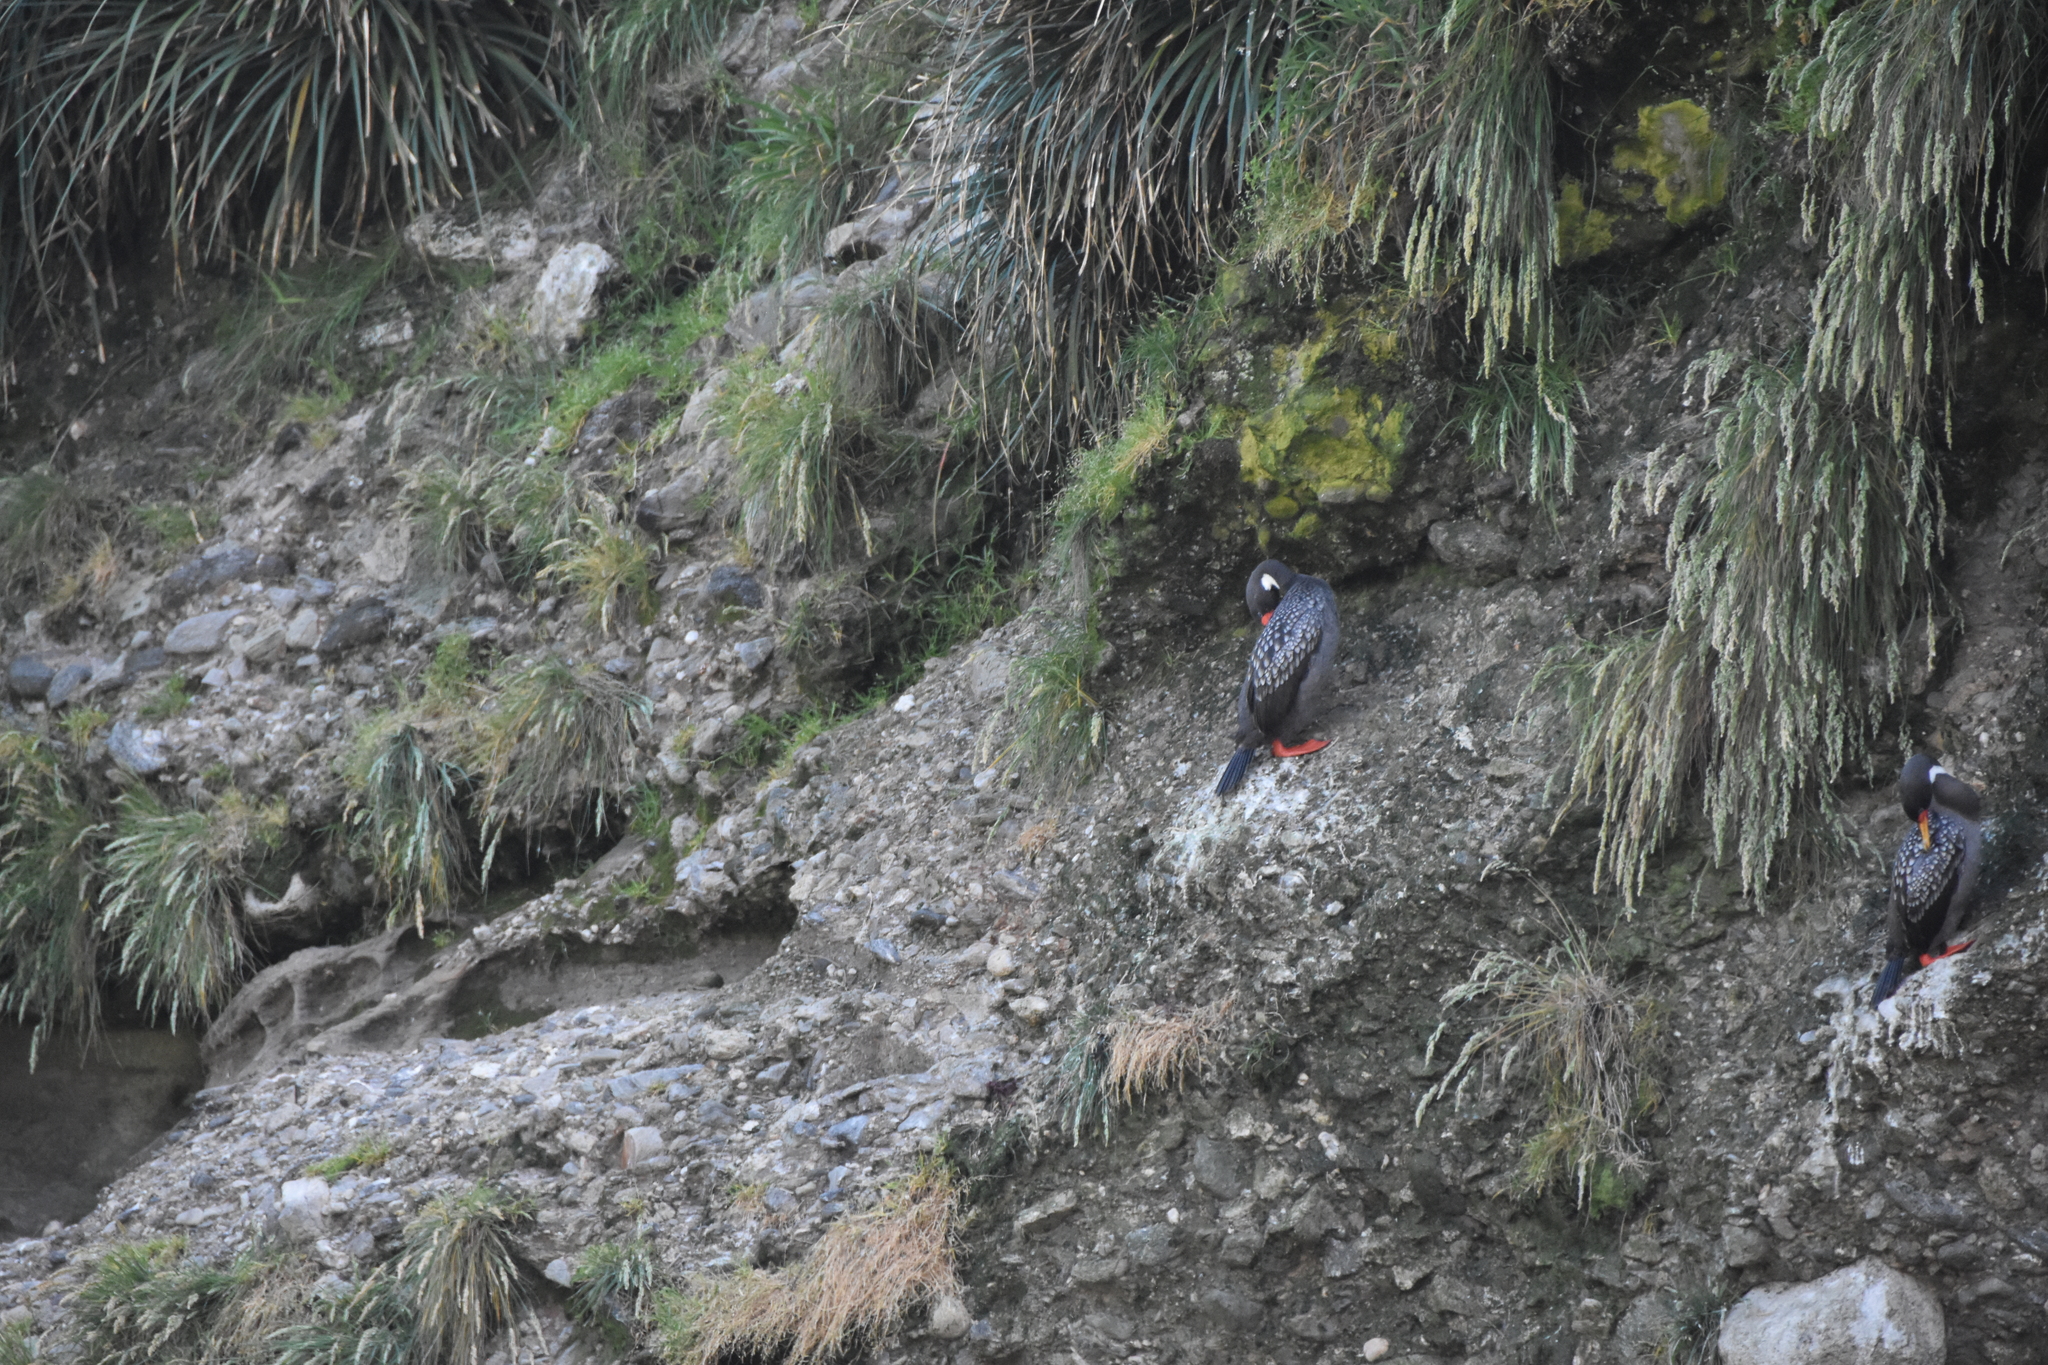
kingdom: Animalia
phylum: Chordata
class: Aves
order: Suliformes
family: Phalacrocoracidae
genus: Phalacrocorax
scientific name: Phalacrocorax gaimardi
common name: Red-legged cormorant
